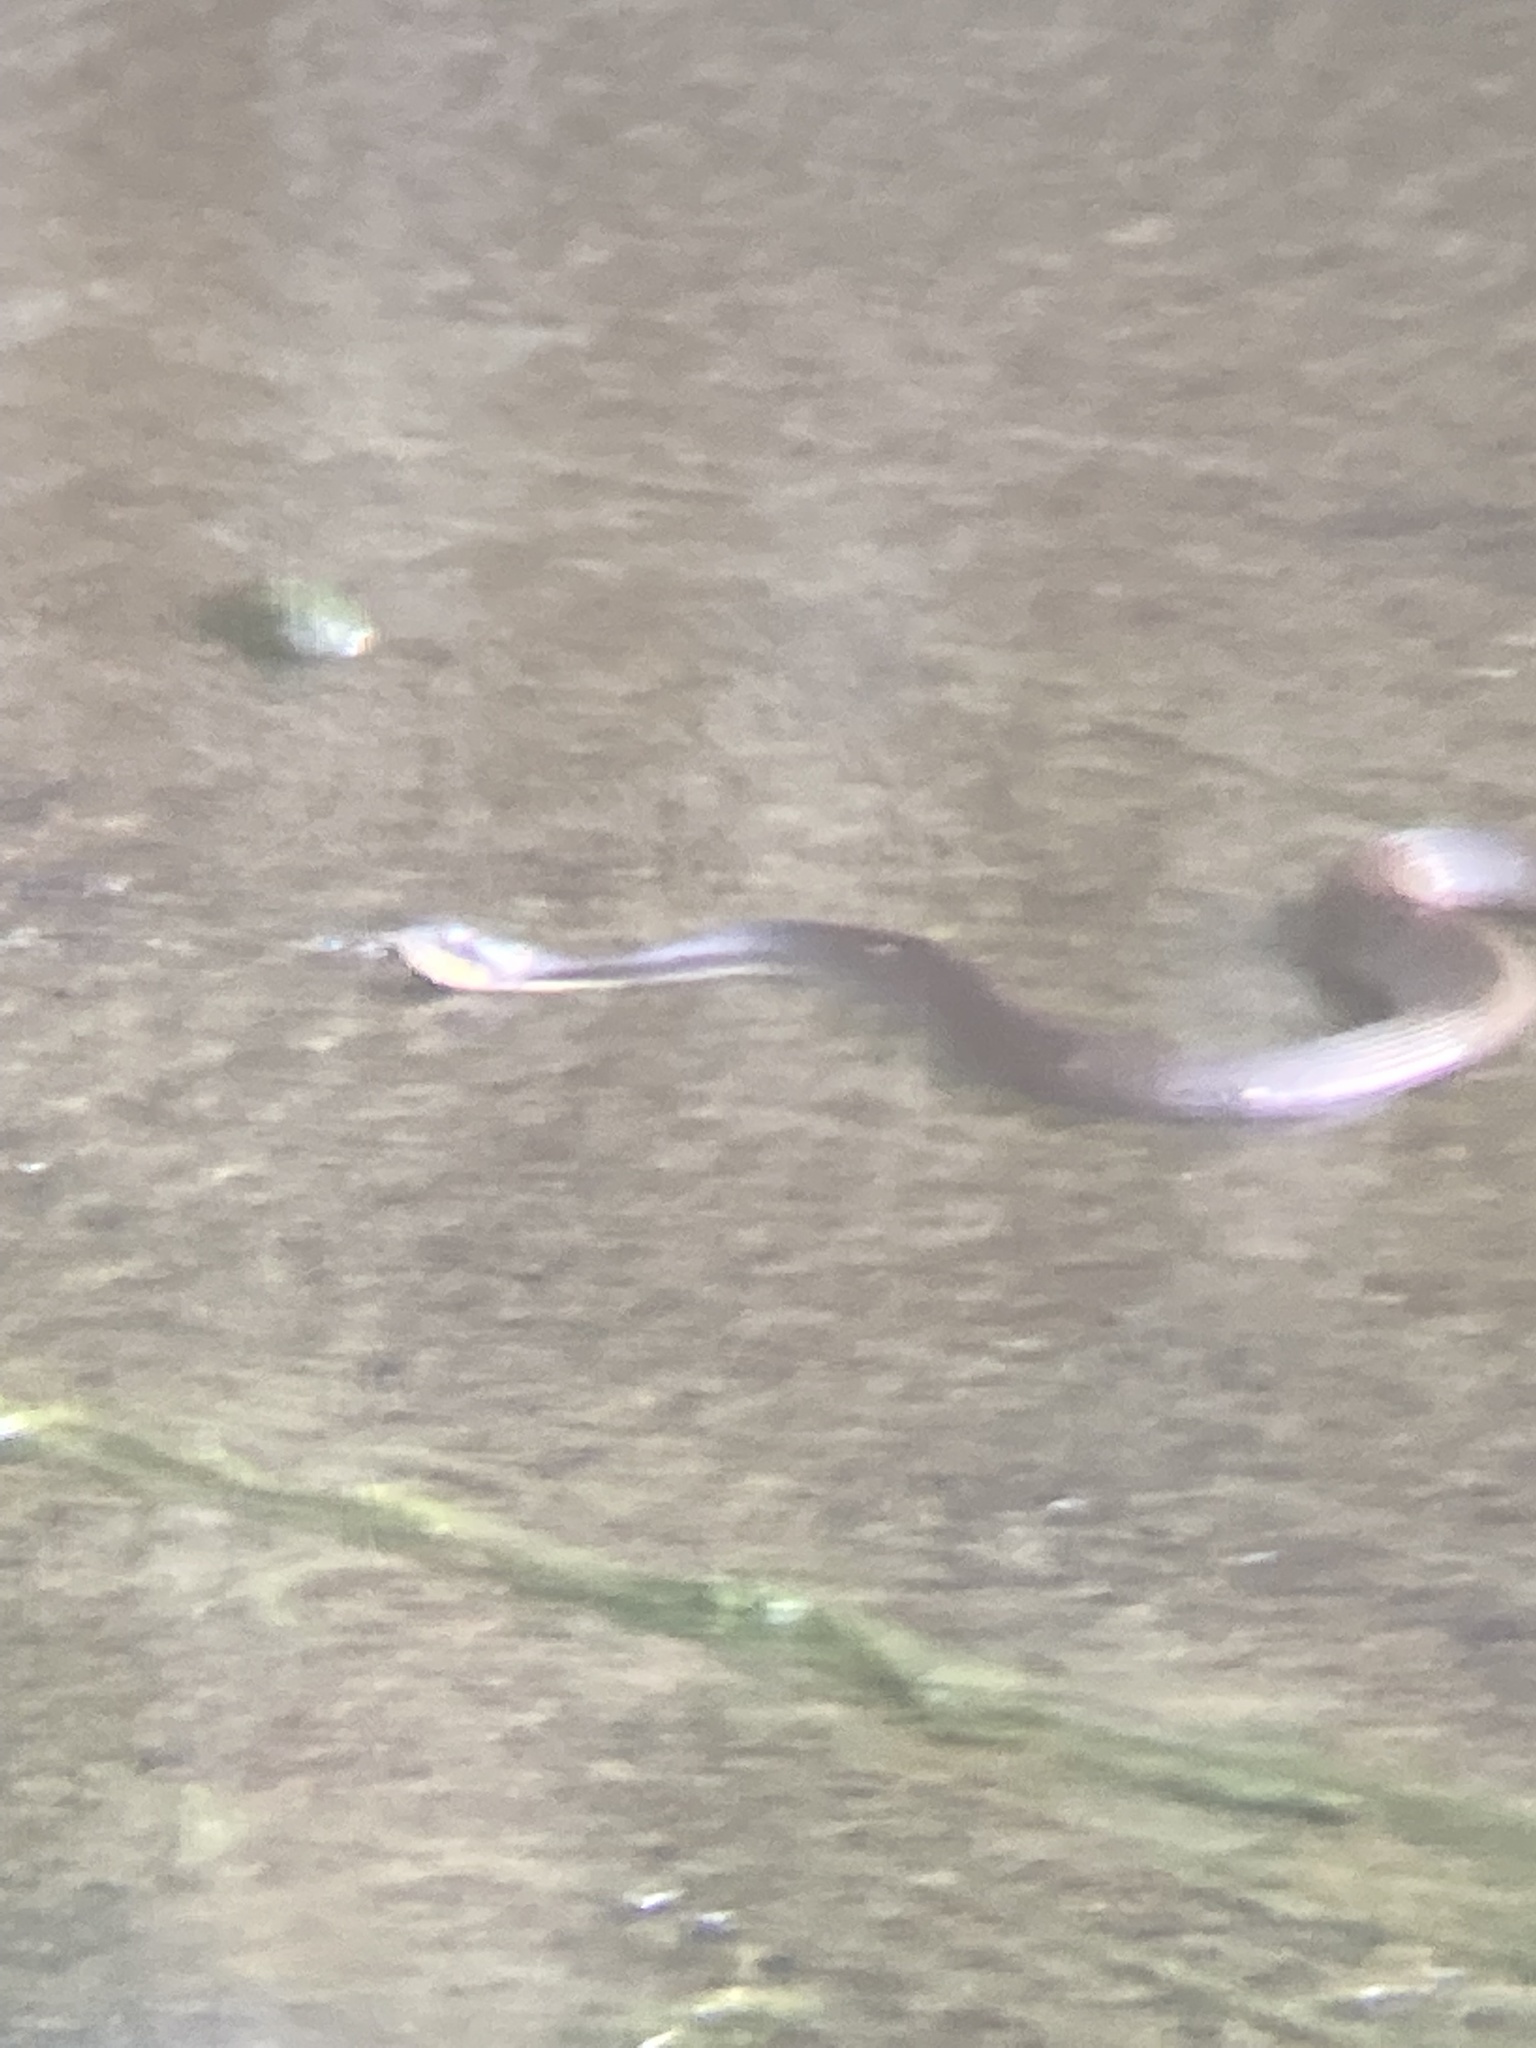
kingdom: Animalia
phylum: Chordata
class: Squamata
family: Colubridae
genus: Nerodia
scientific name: Nerodia erythrogaster
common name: Plainbelly water snake
